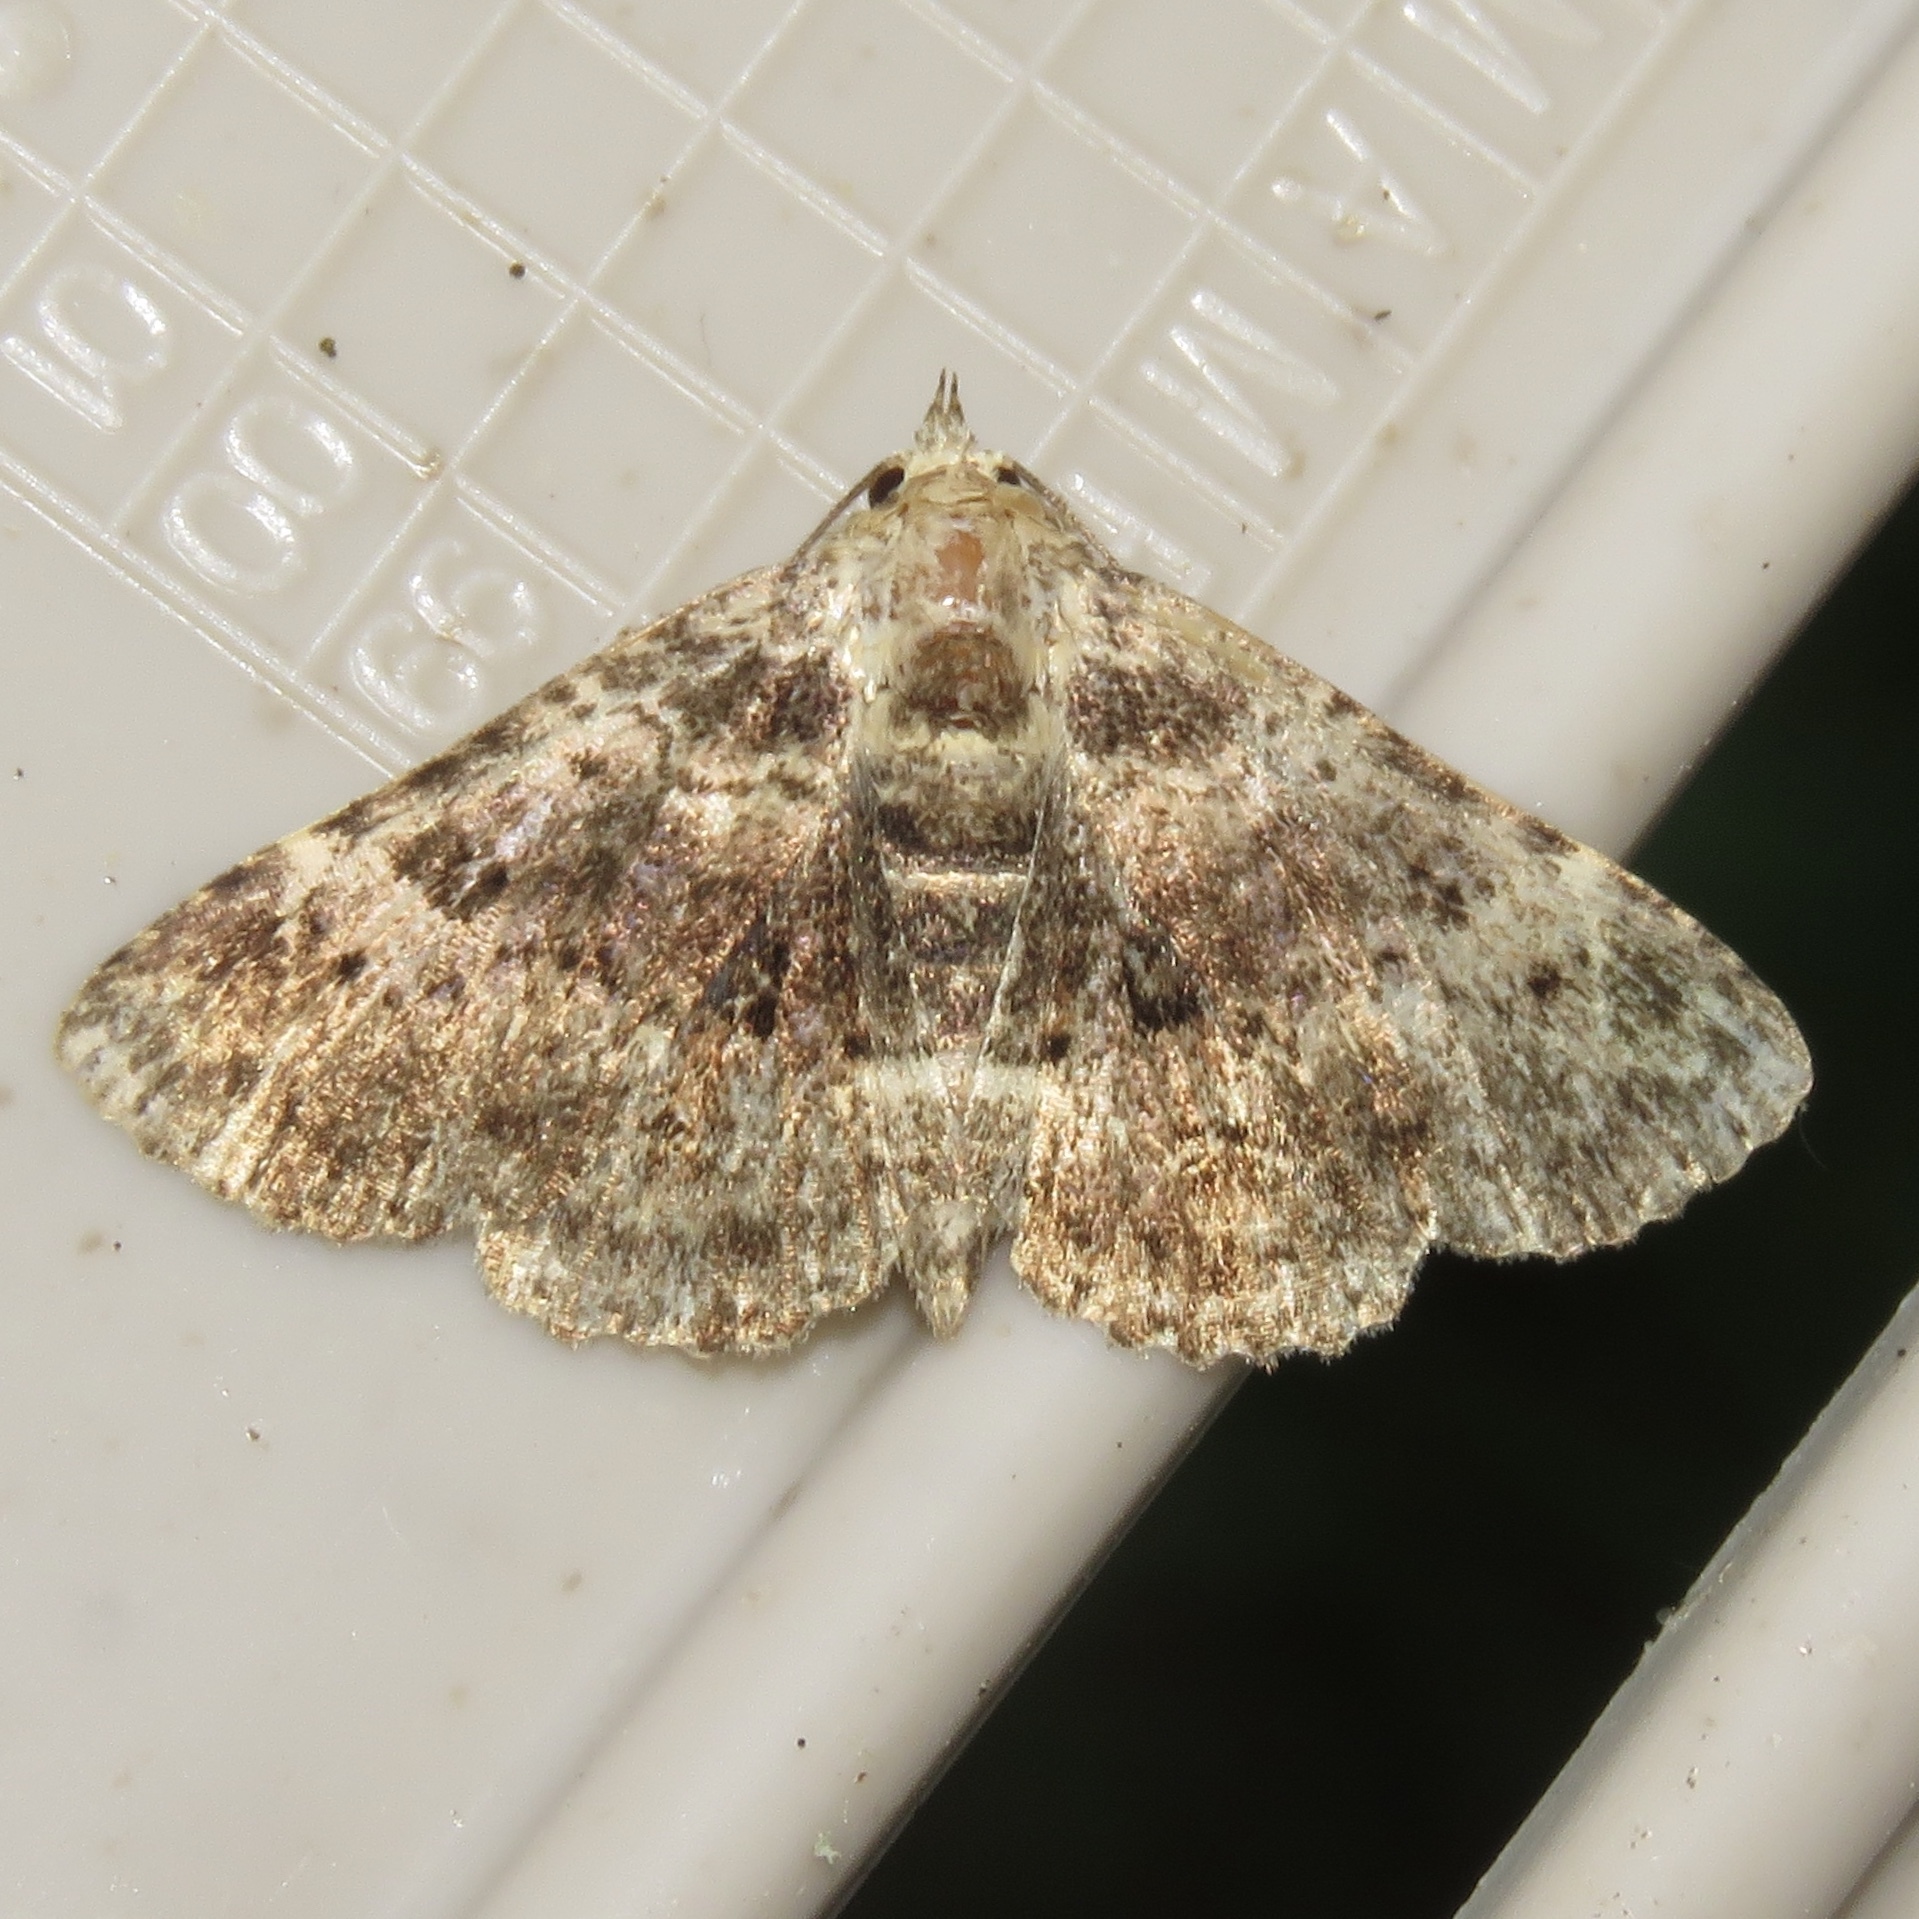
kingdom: Animalia
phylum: Arthropoda
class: Insecta
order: Lepidoptera
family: Erebidae
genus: Metalectra
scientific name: Metalectra discalis
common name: Common fungus moth
